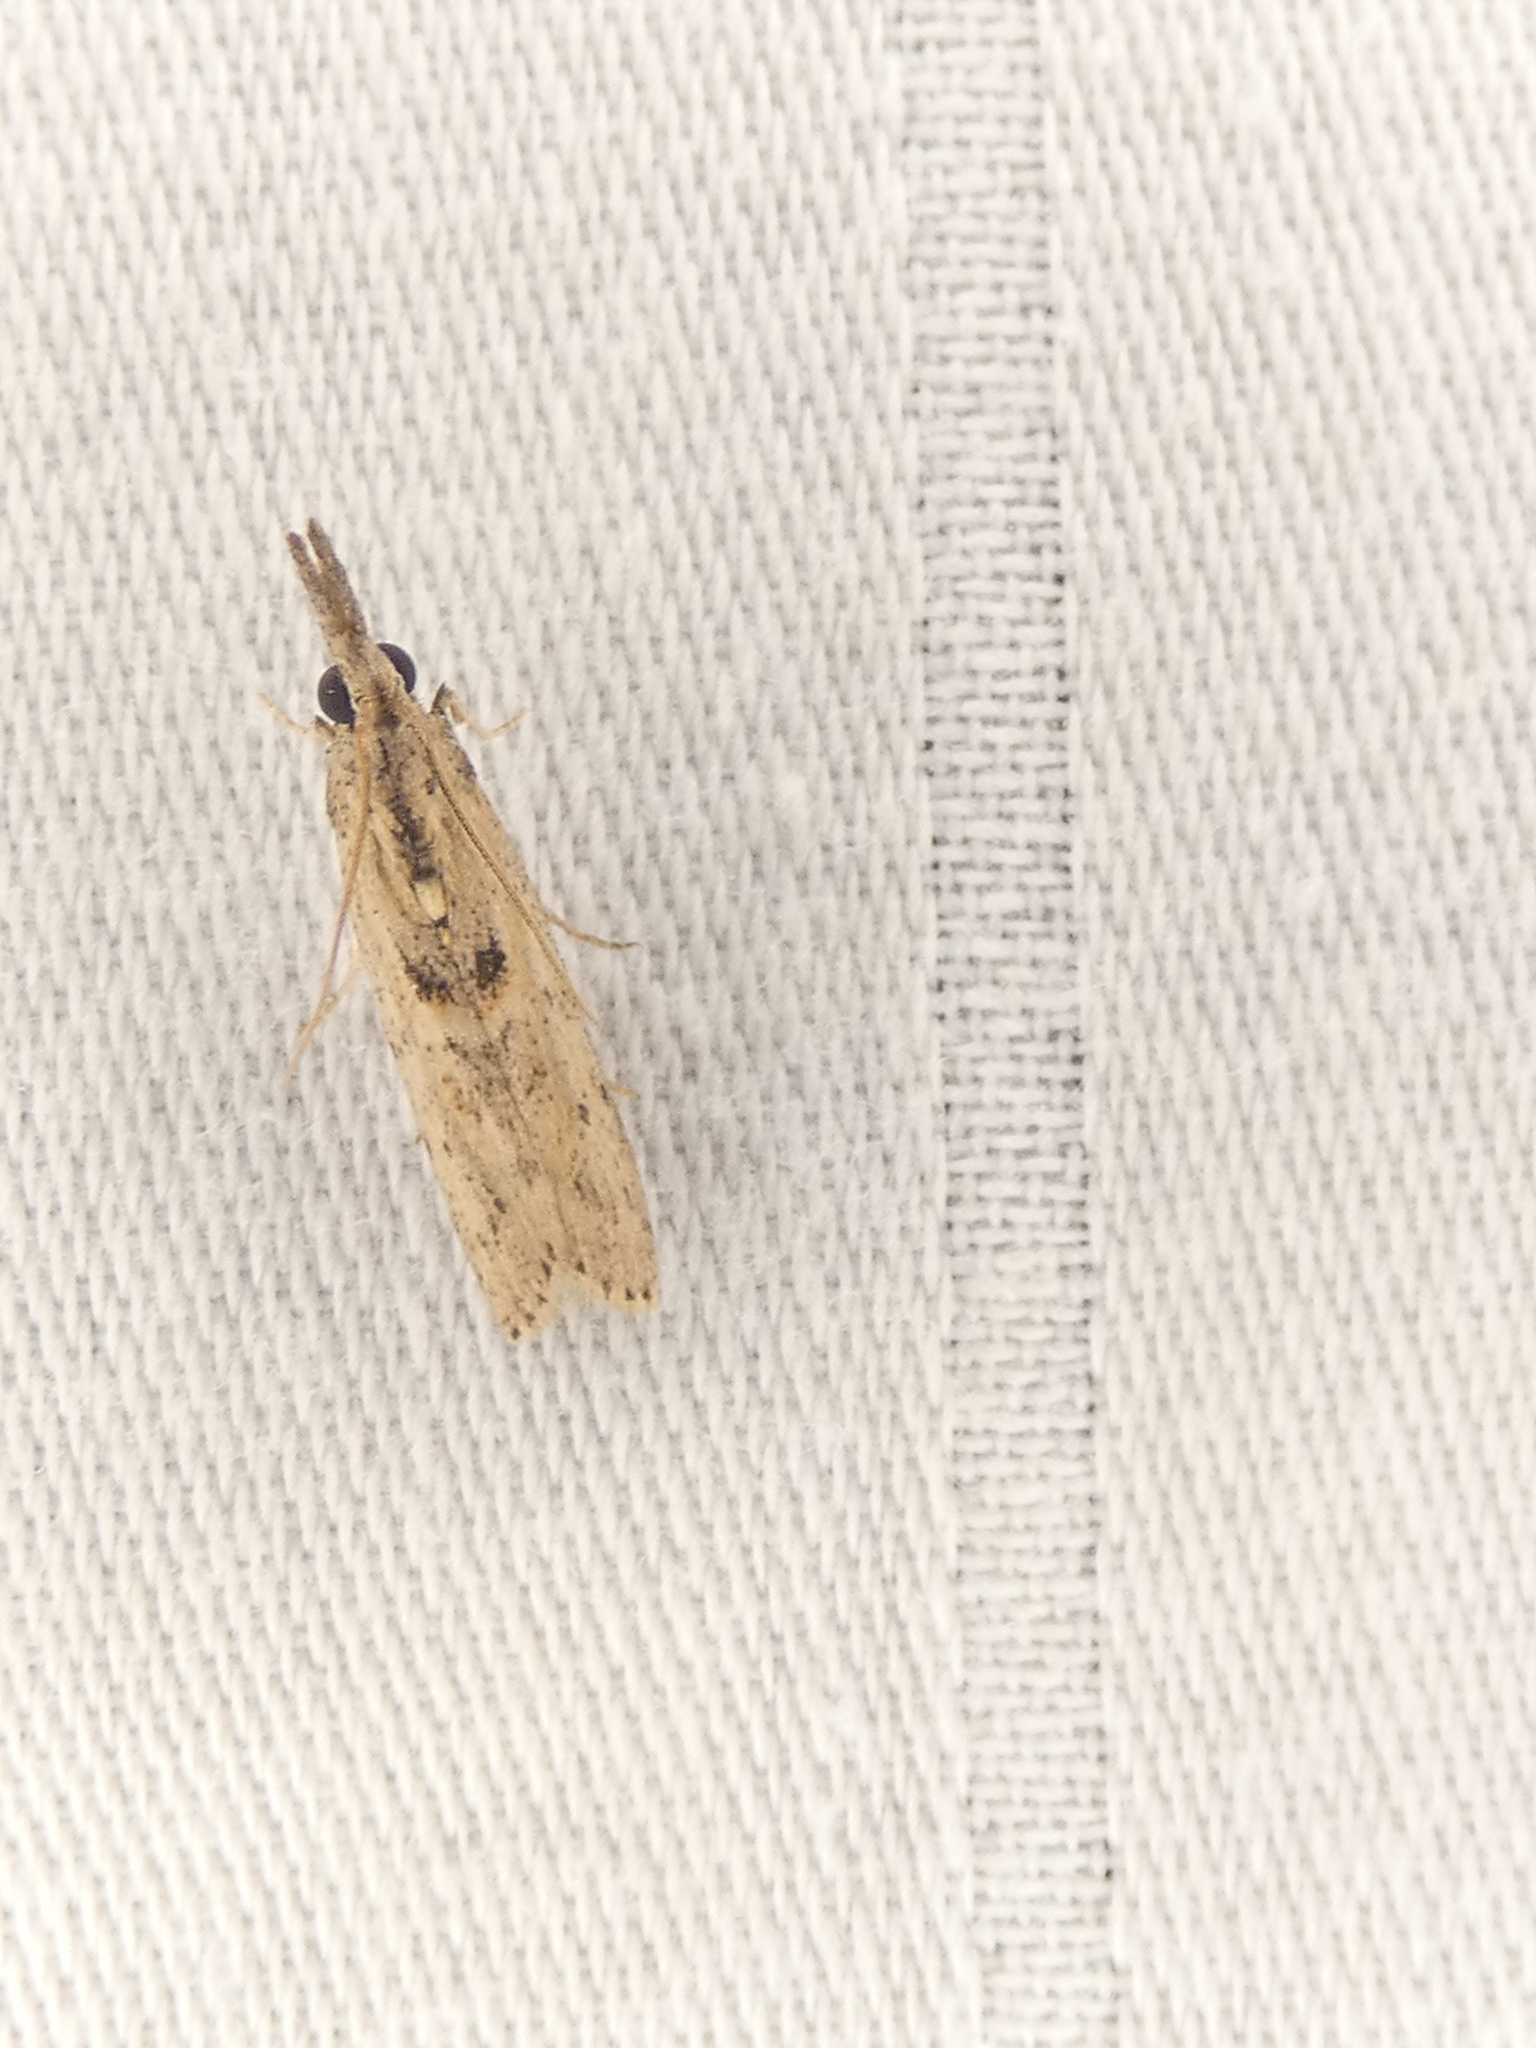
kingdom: Animalia
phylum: Arthropoda
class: Insecta
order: Lepidoptera
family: Pyralidae
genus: Macrorrhinia
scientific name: Macrorrhinia endonephele
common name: Alligator weed stemborer moth
